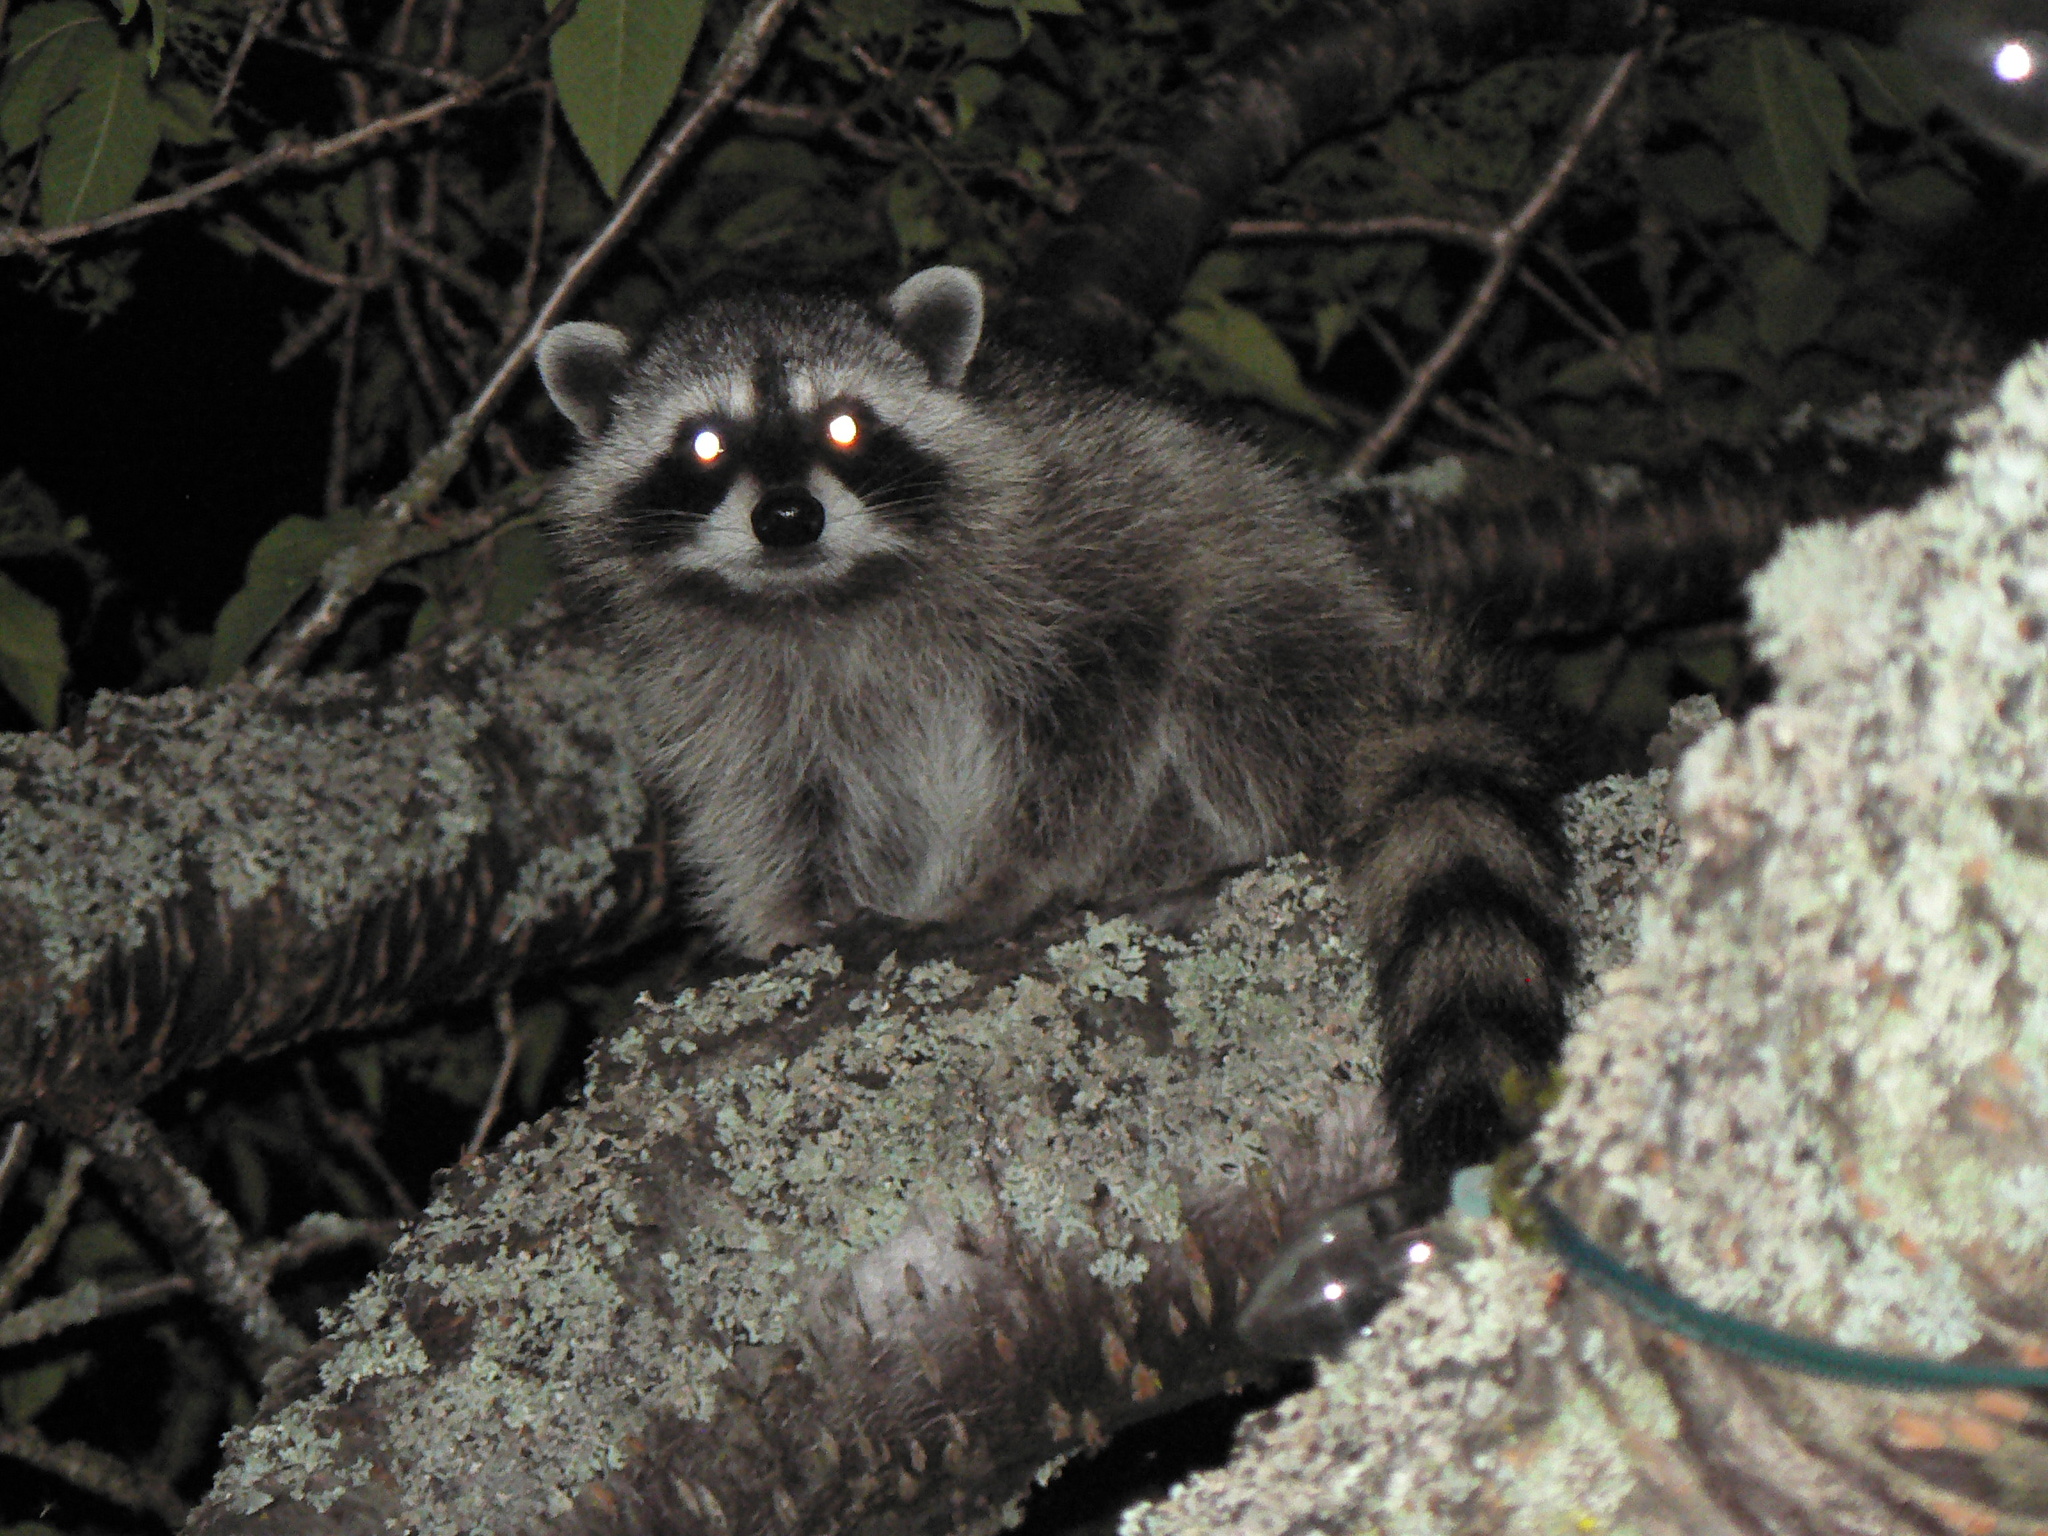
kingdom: Animalia
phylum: Chordata
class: Mammalia
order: Carnivora
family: Procyonidae
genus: Procyon
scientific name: Procyon lotor
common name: Raccoon
